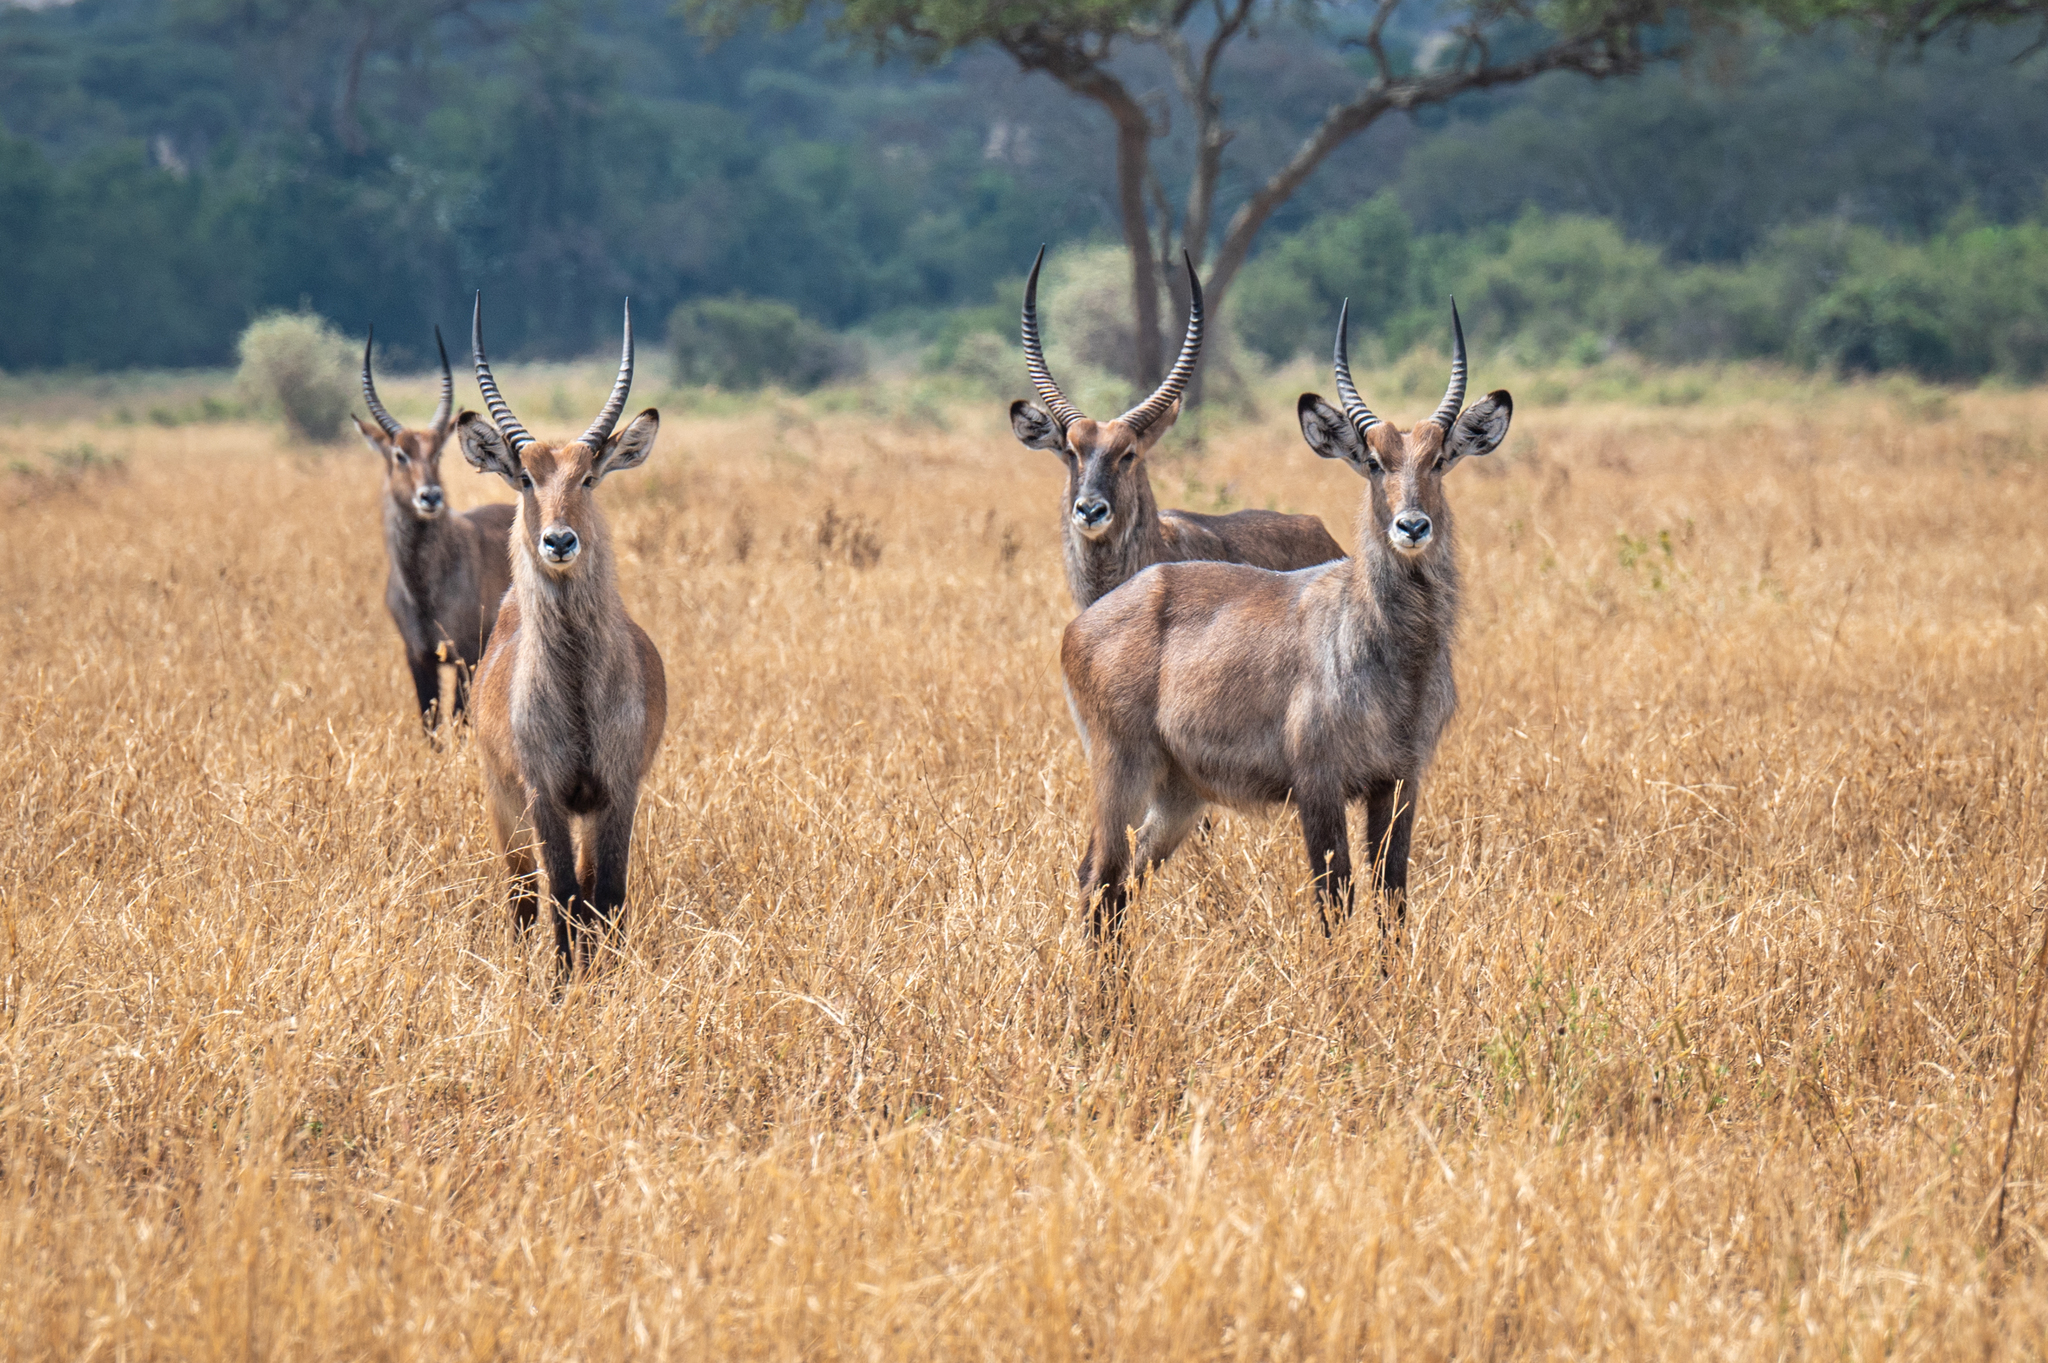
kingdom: Animalia
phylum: Chordata
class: Mammalia
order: Artiodactyla
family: Bovidae
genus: Kobus
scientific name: Kobus ellipsiprymnus
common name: Waterbuck
